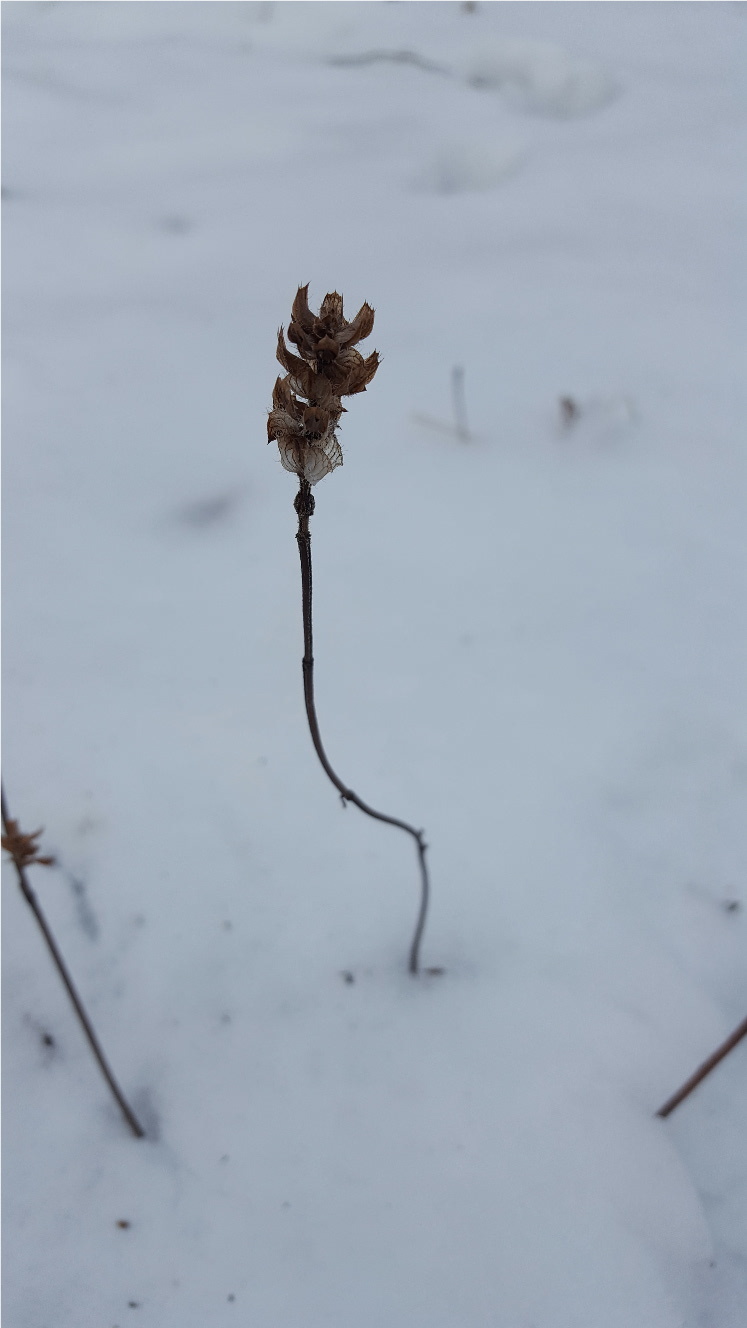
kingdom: Plantae
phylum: Tracheophyta
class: Magnoliopsida
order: Lamiales
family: Lamiaceae
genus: Prunella
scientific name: Prunella vulgaris
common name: Heal-all
